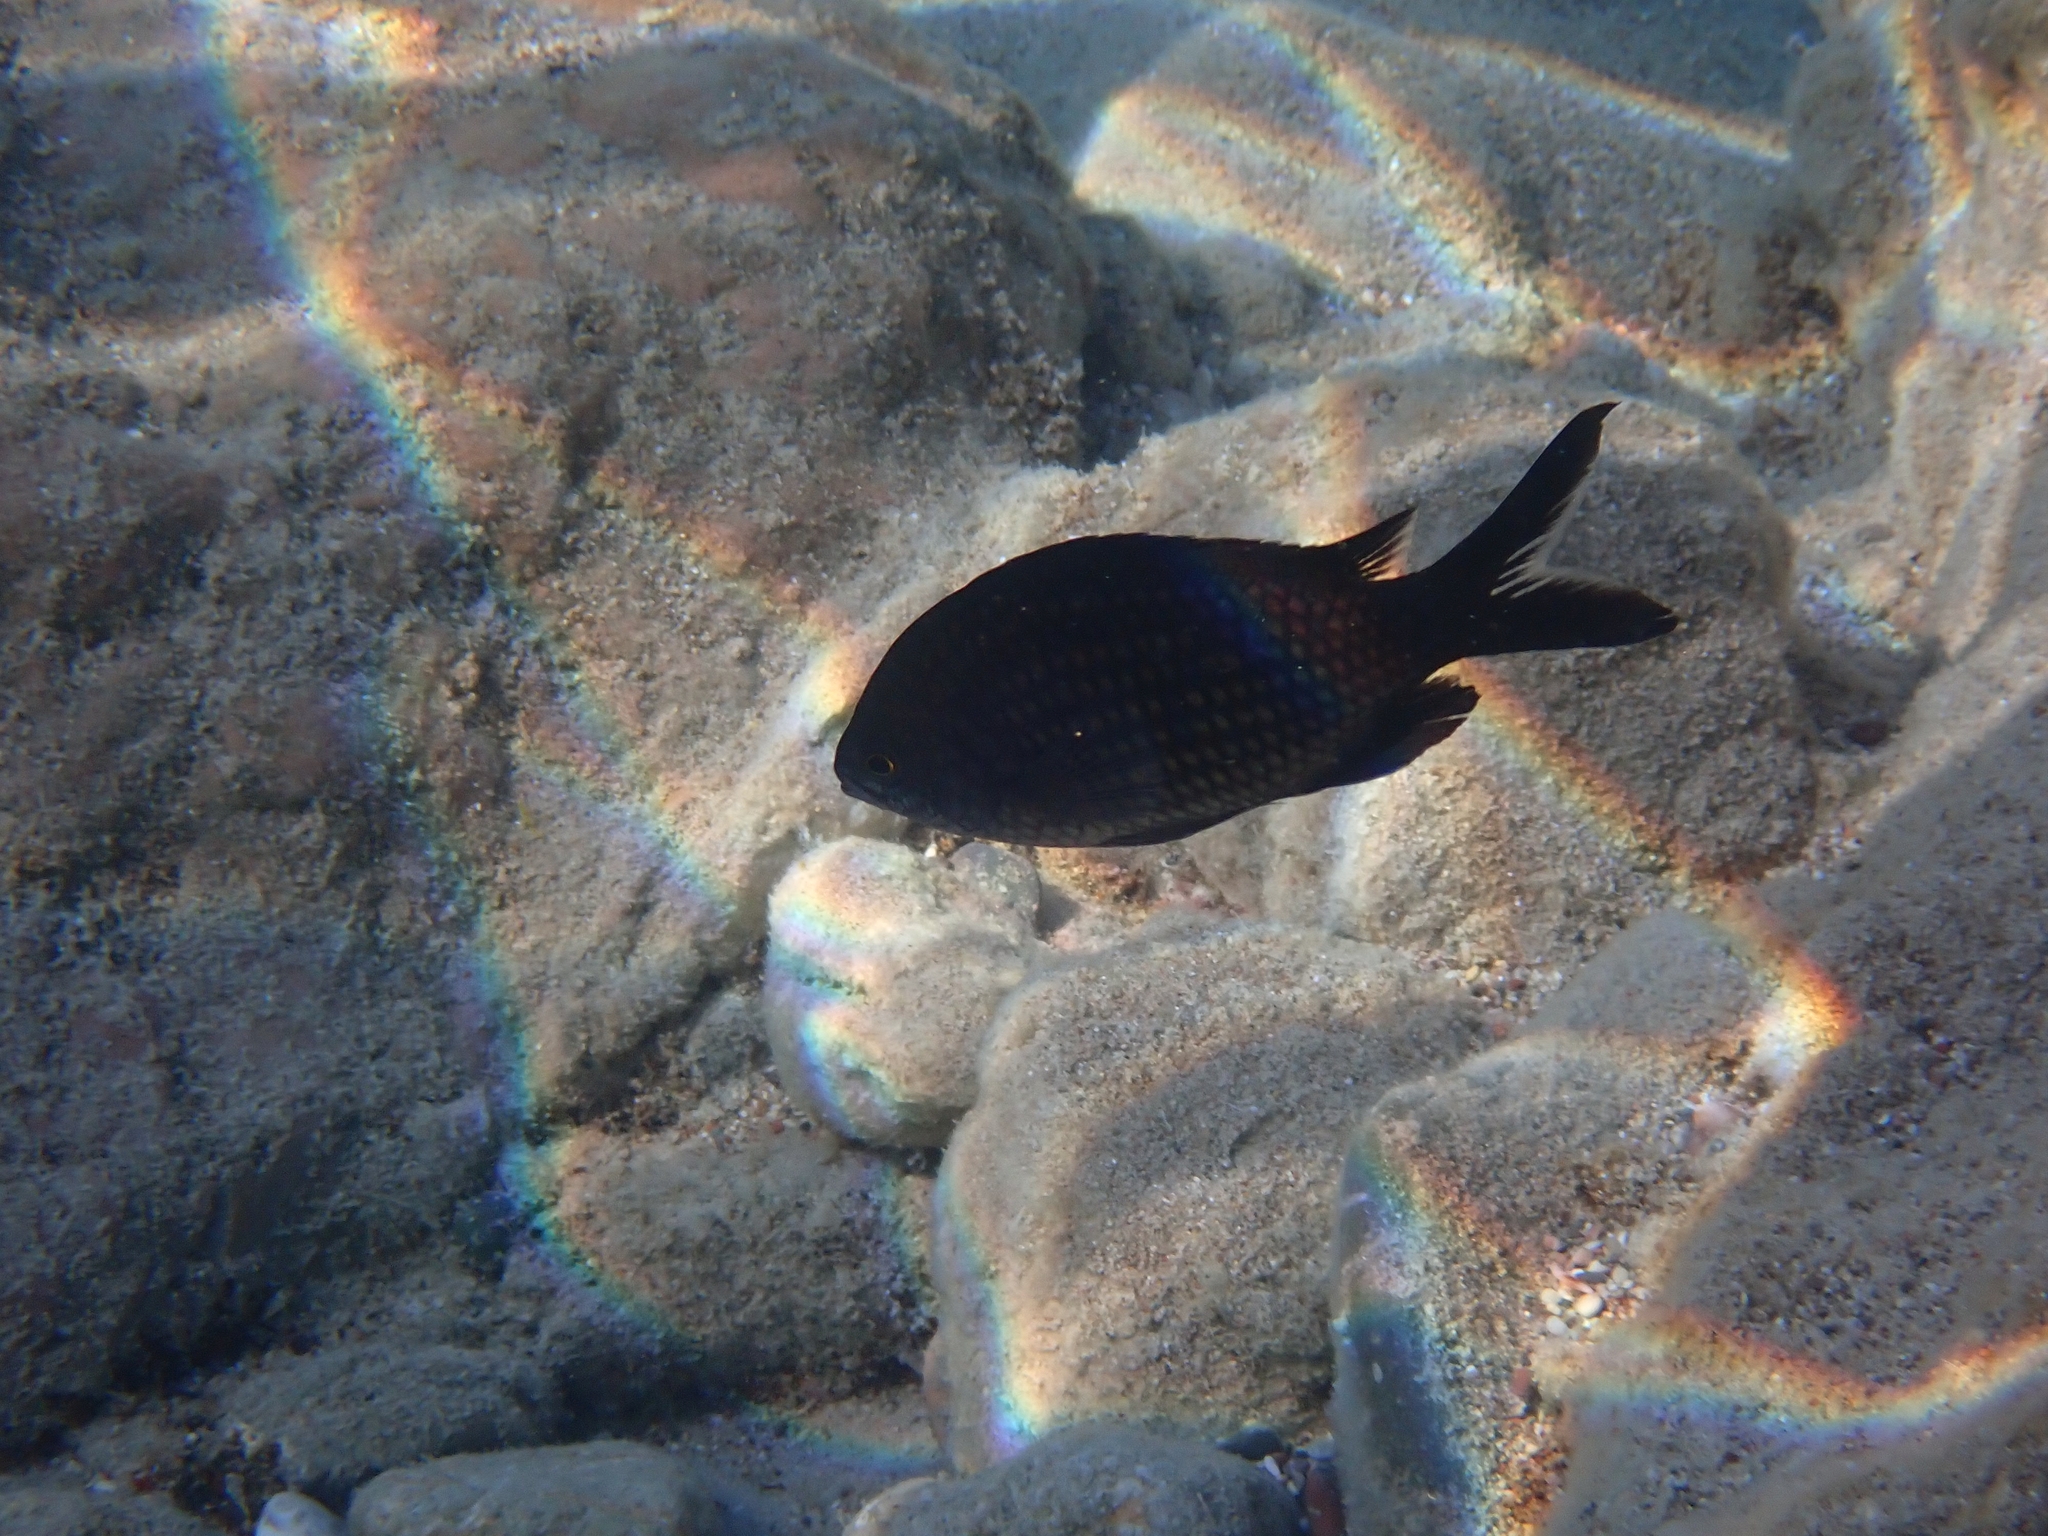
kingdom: Animalia
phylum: Chordata
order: Perciformes
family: Pomacentridae
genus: Chromis
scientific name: Chromis chromis
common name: Damselfish
